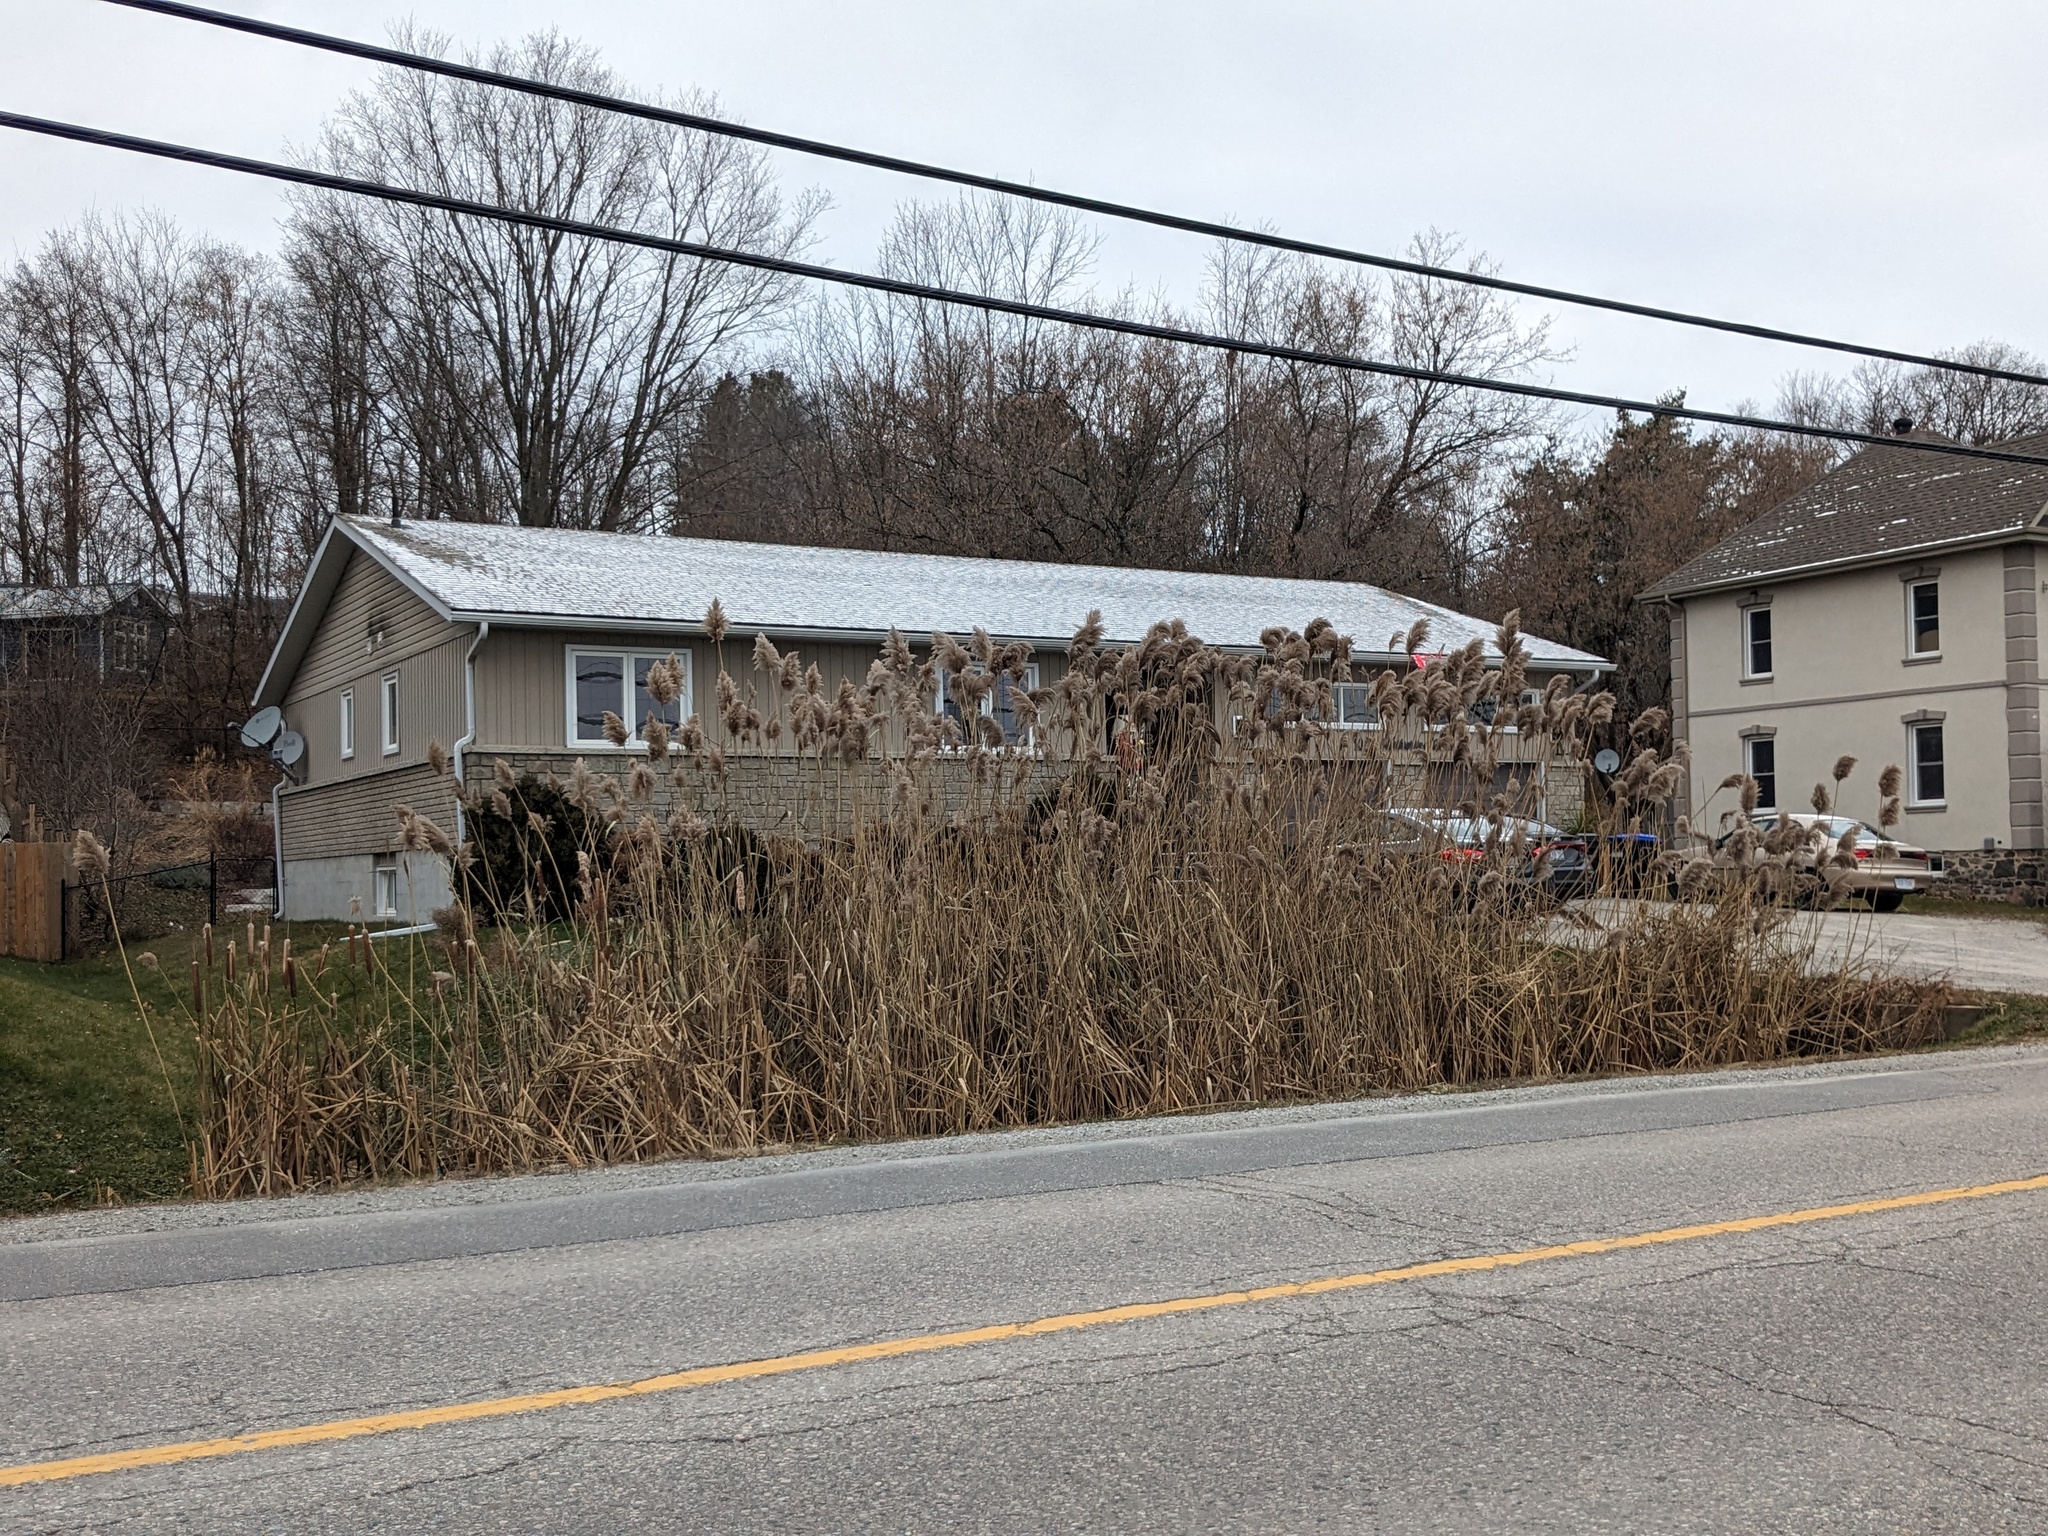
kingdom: Plantae
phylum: Tracheophyta
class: Liliopsida
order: Poales
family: Poaceae
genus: Phragmites
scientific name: Phragmites australis
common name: Common reed
